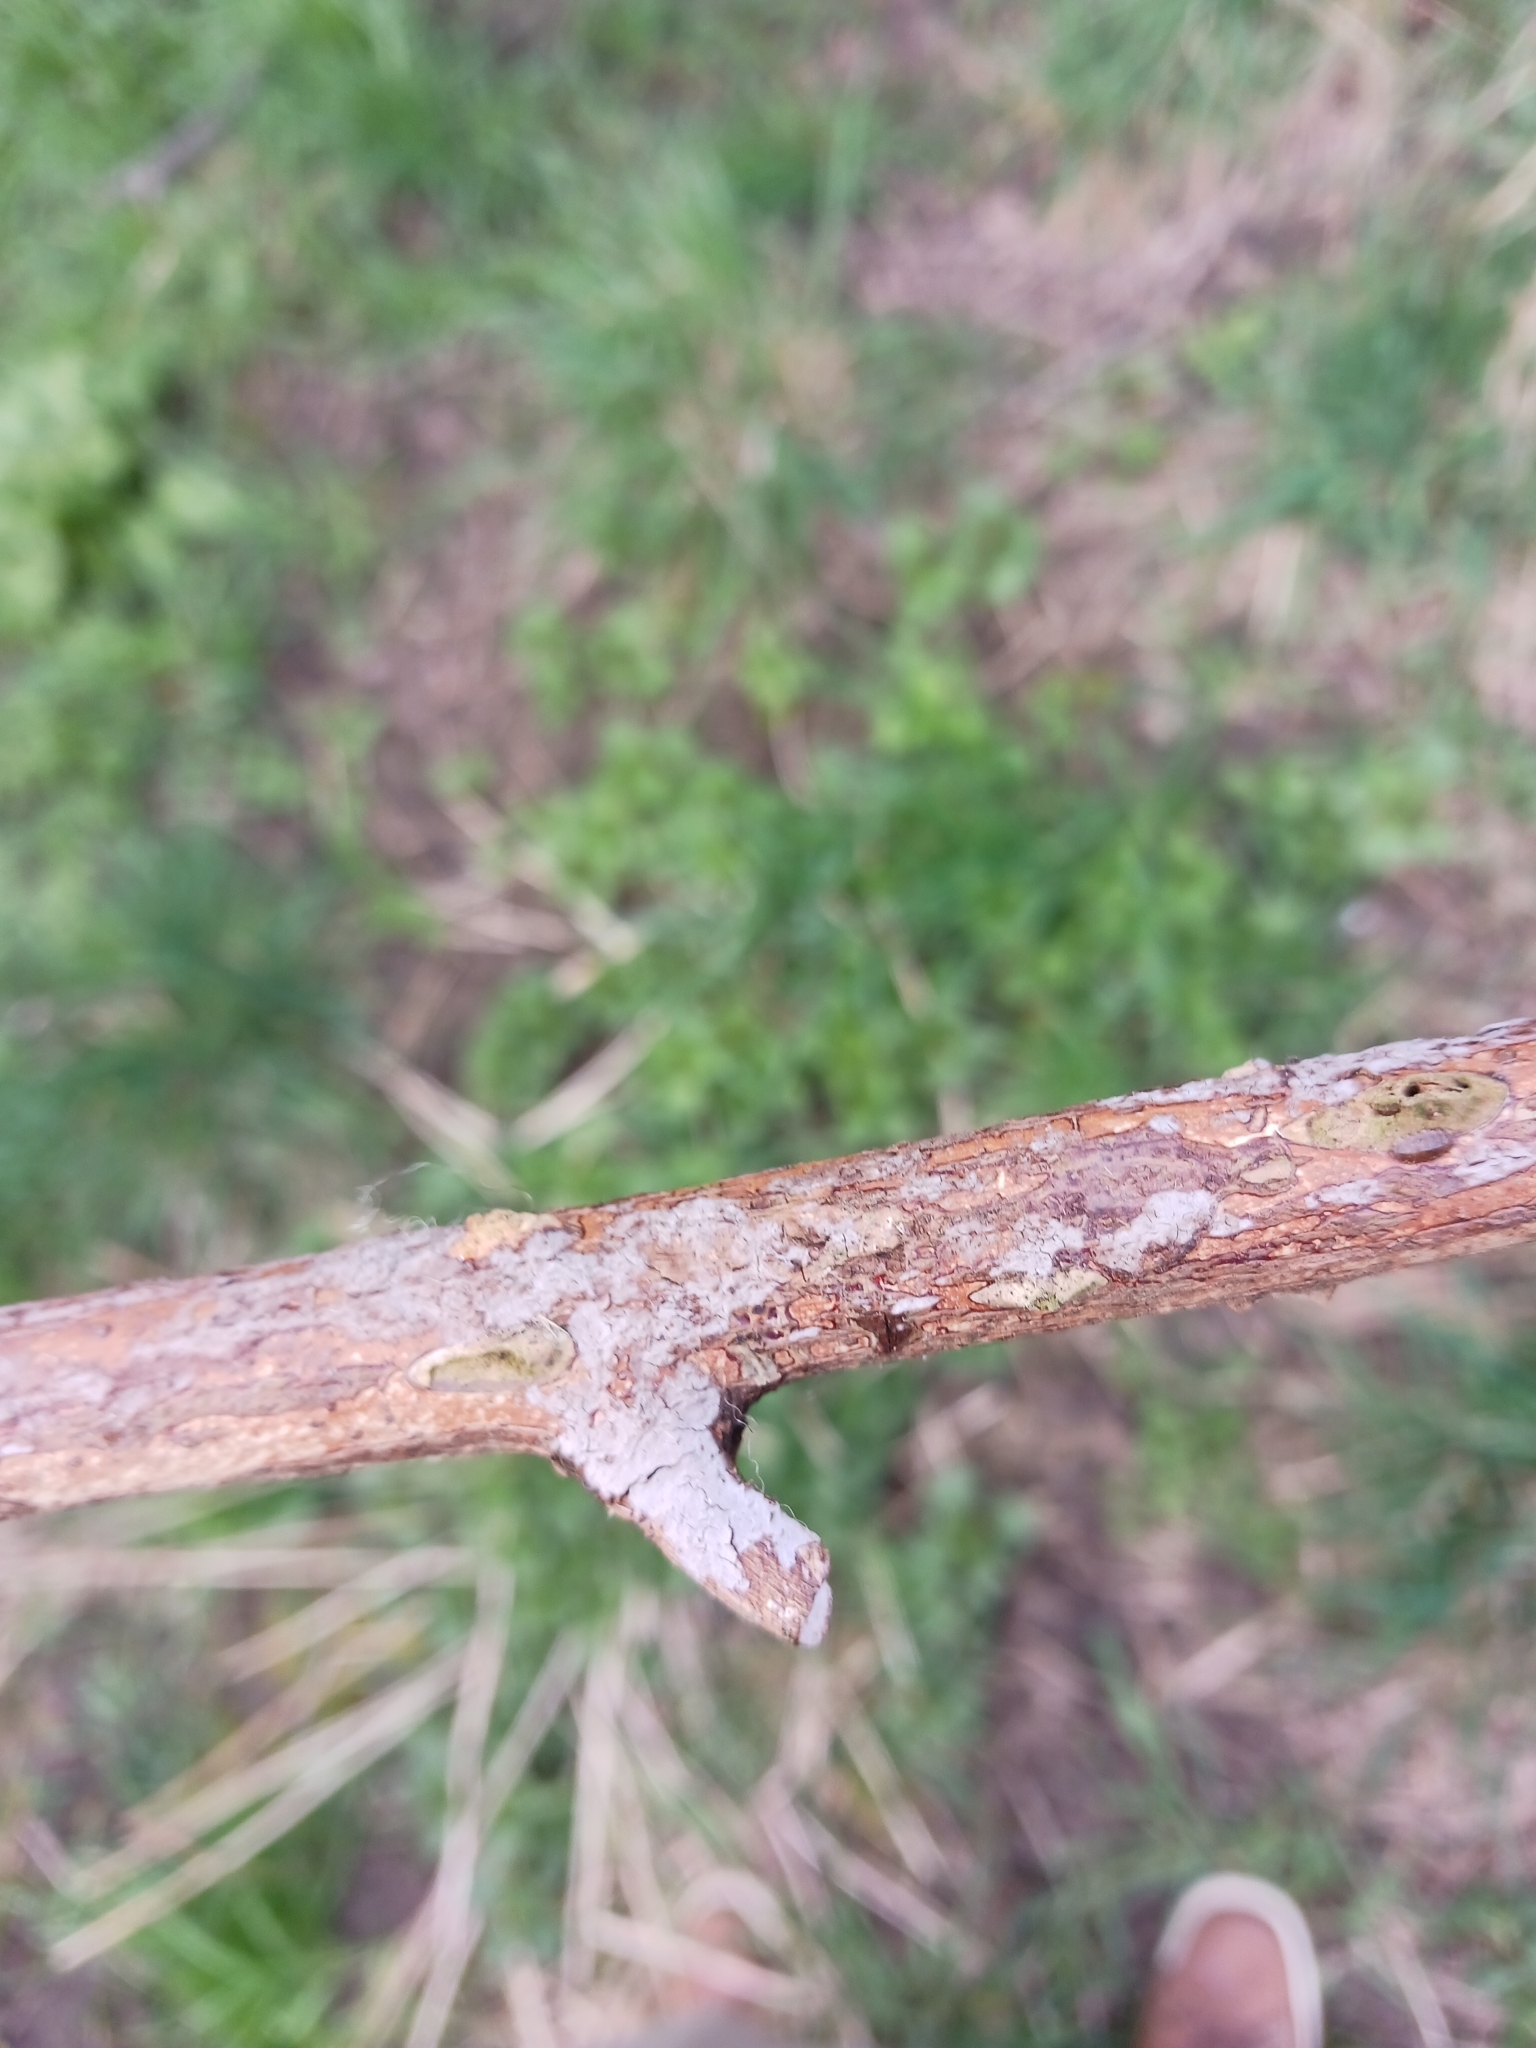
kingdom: Fungi
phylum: Basidiomycota
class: Tremellomycetes
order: Tremellales
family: Tremellaceae
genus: Tremella
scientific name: Tremella mesenterica
